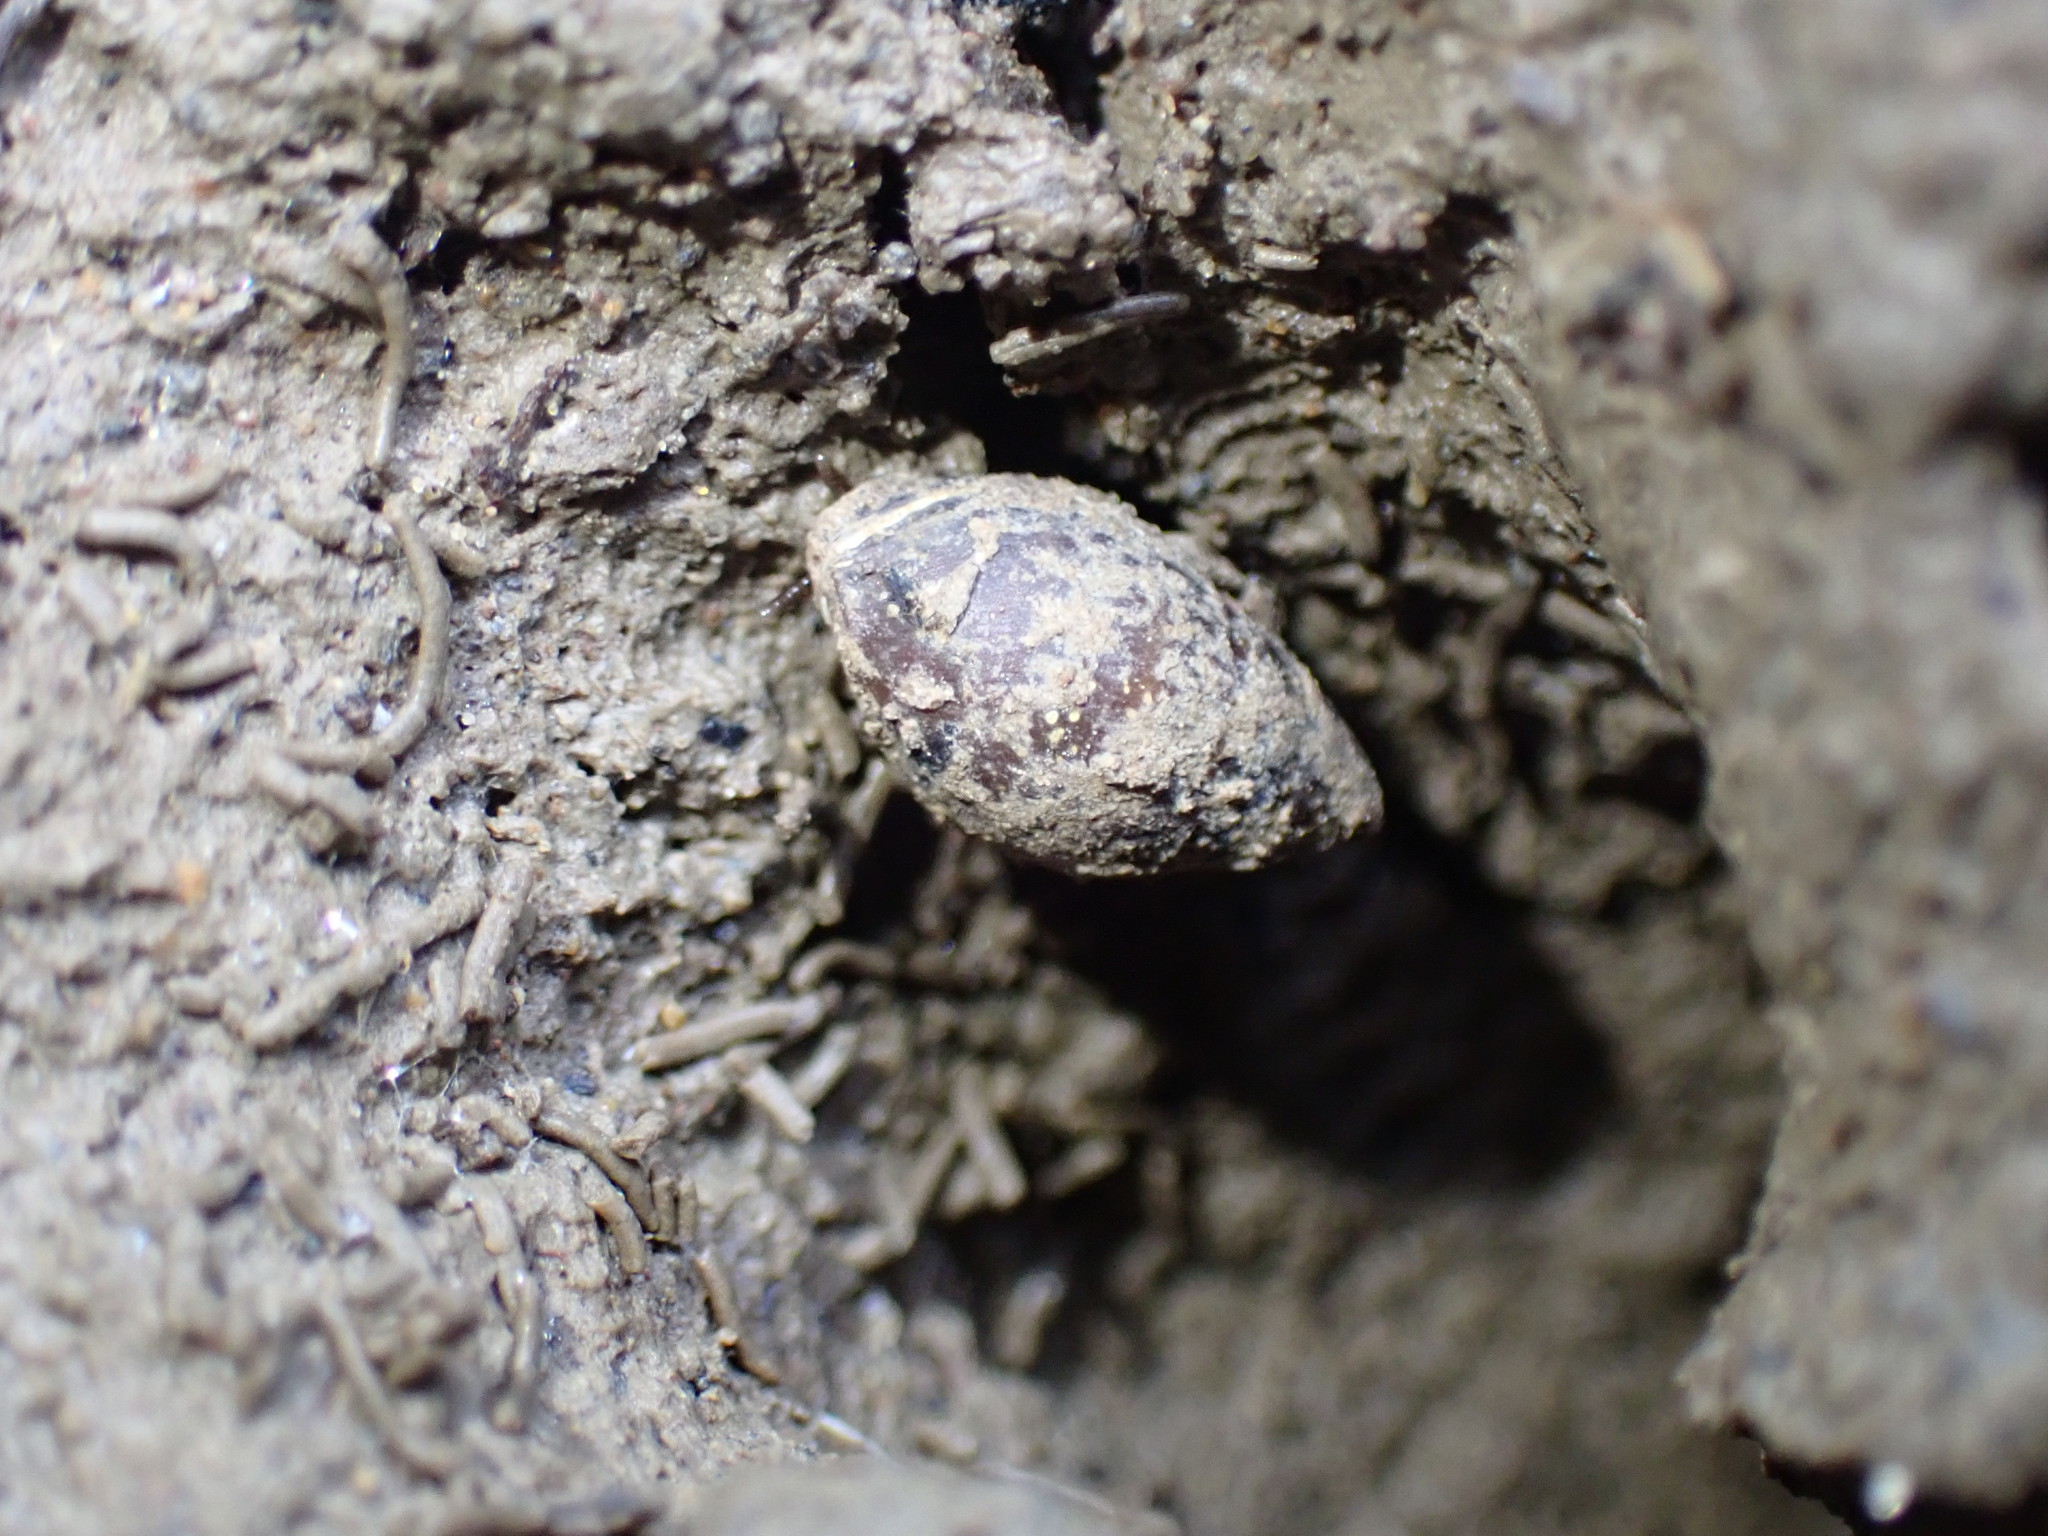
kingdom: Animalia
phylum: Mollusca
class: Gastropoda
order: Ellobiida
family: Ellobiidae
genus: Pleuroloba
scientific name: Pleuroloba costellaris
